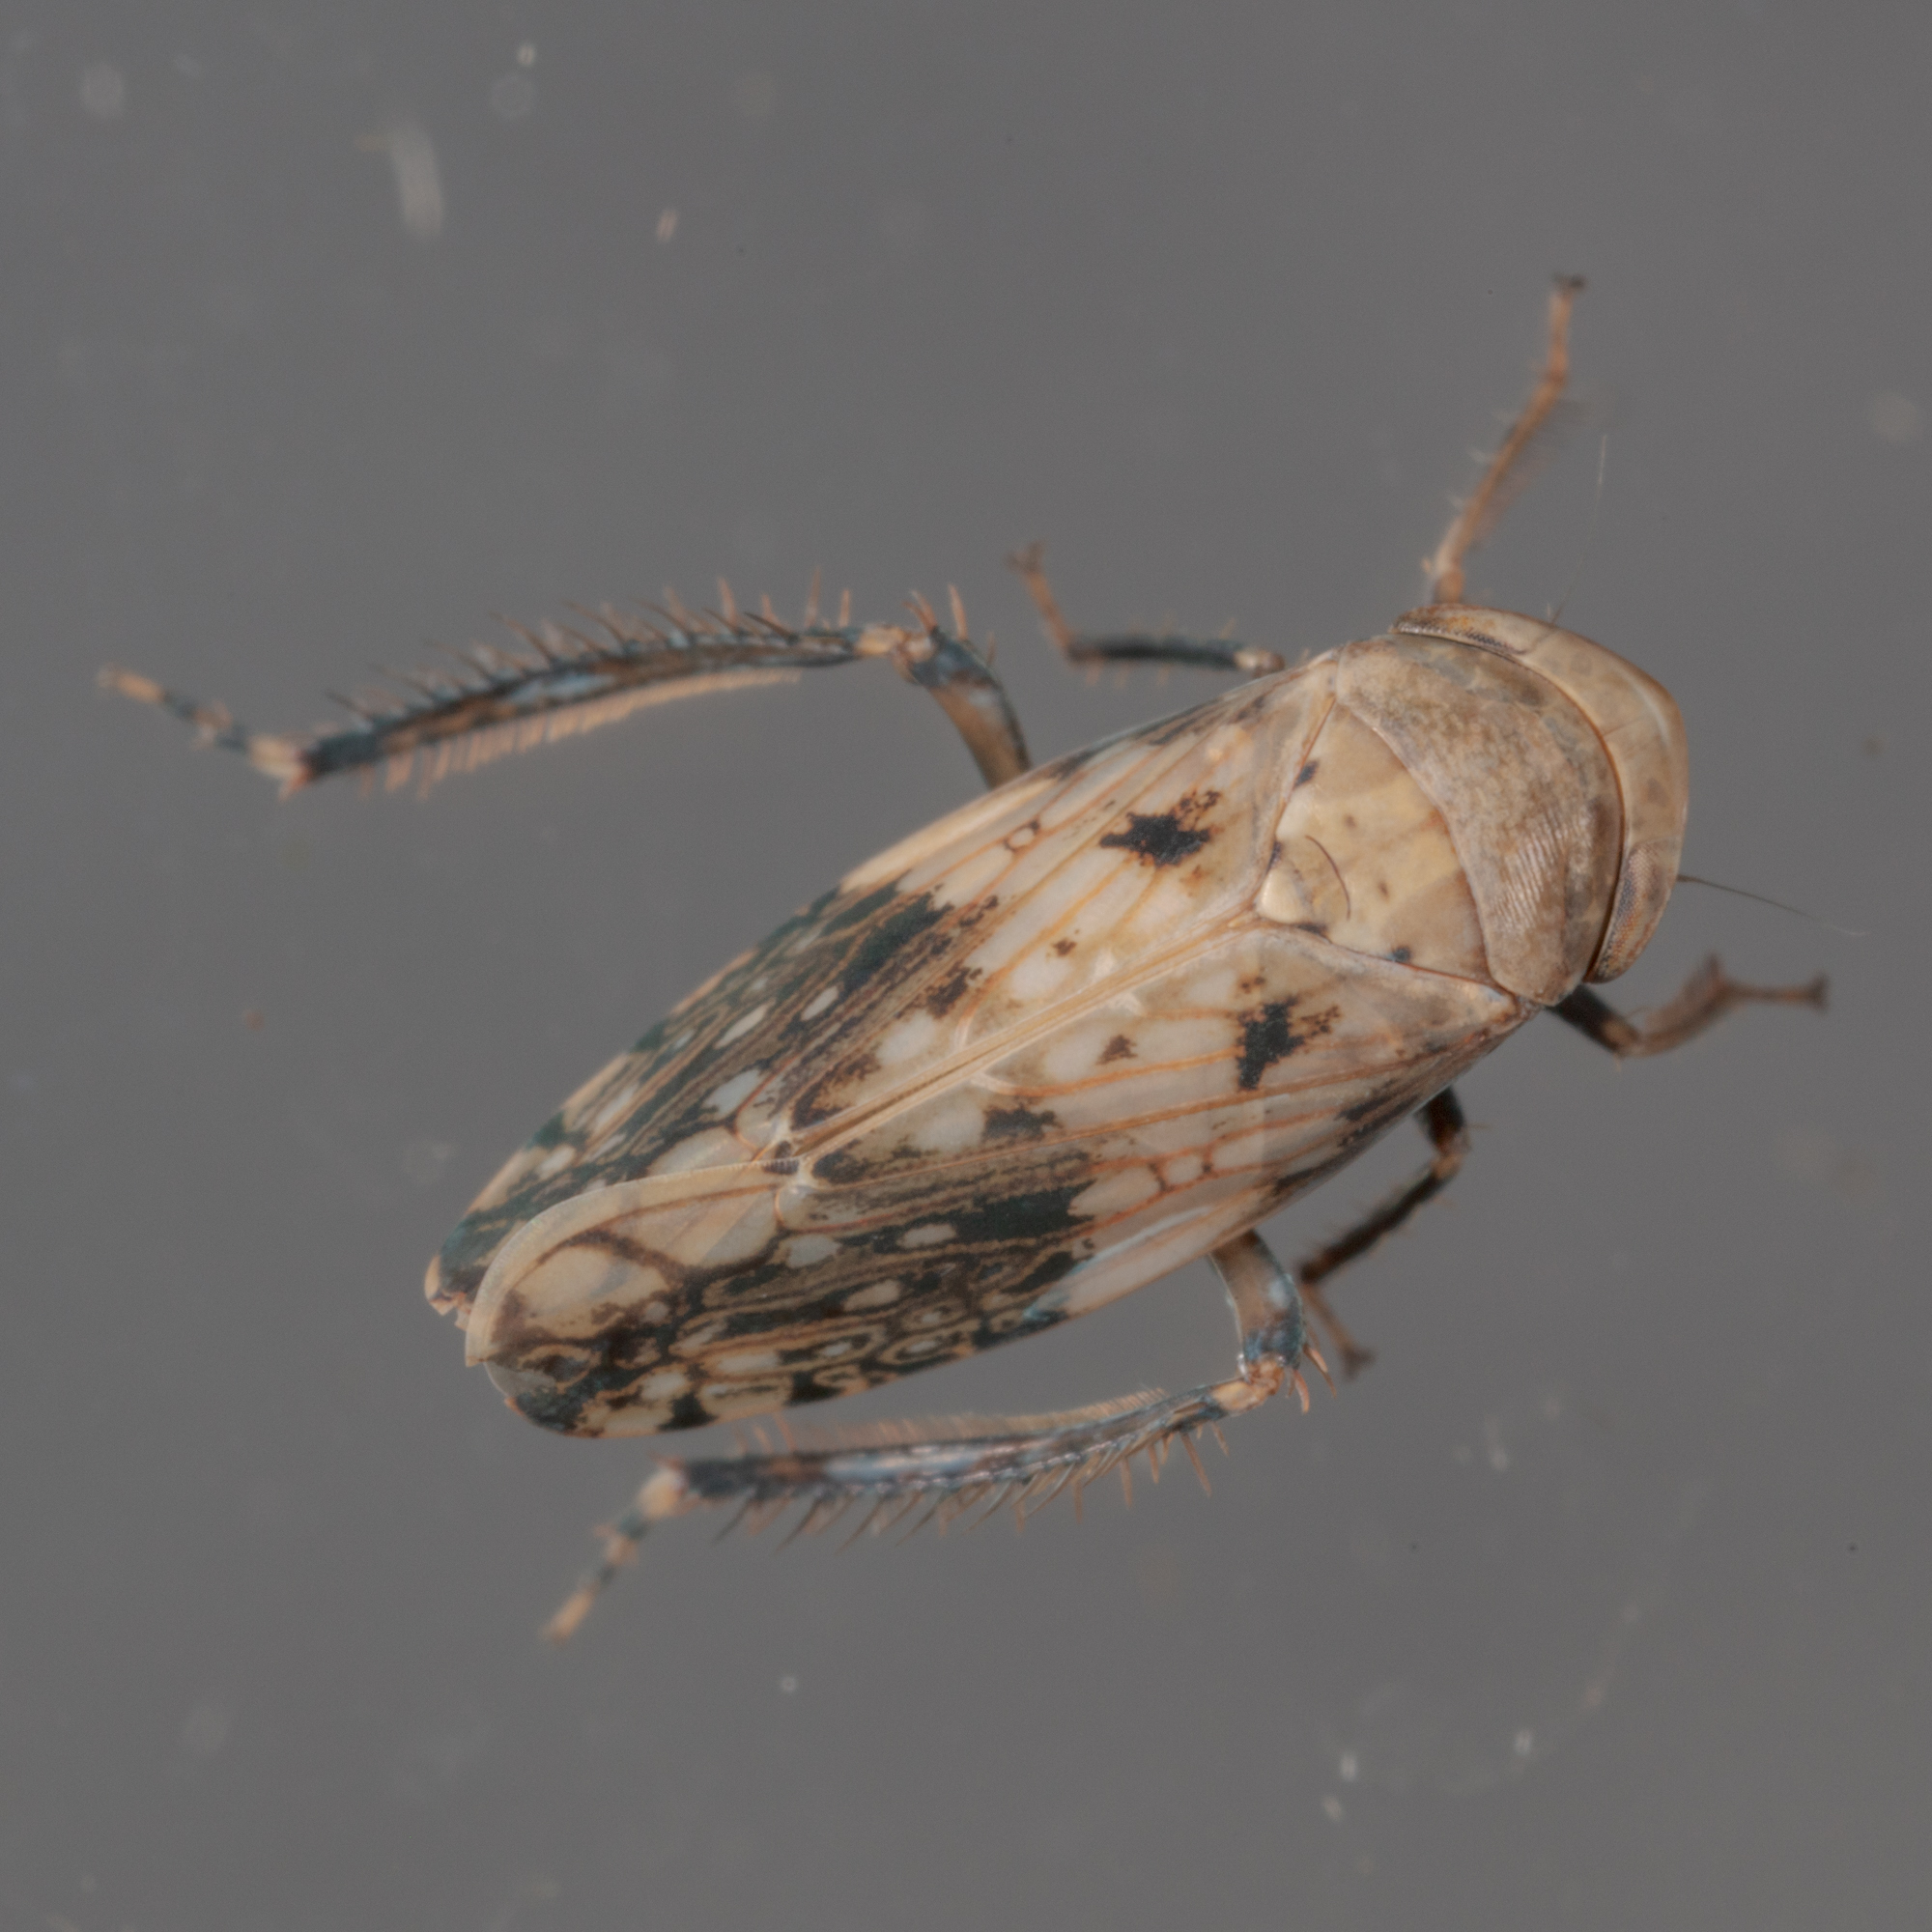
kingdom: Animalia
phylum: Arthropoda
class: Insecta
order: Hemiptera
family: Cicadellidae
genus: Menosoma
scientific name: Menosoma cinctum
